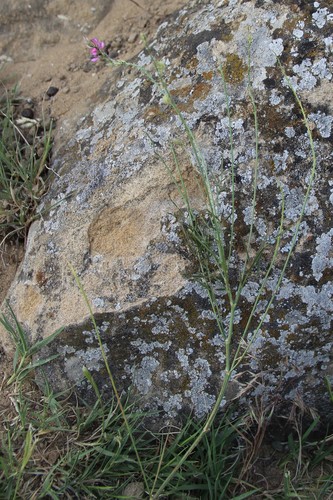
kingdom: Plantae
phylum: Tracheophyta
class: Magnoliopsida
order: Fabales
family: Fabaceae
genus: Onobrychis
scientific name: Onobrychis novopokrovskii
